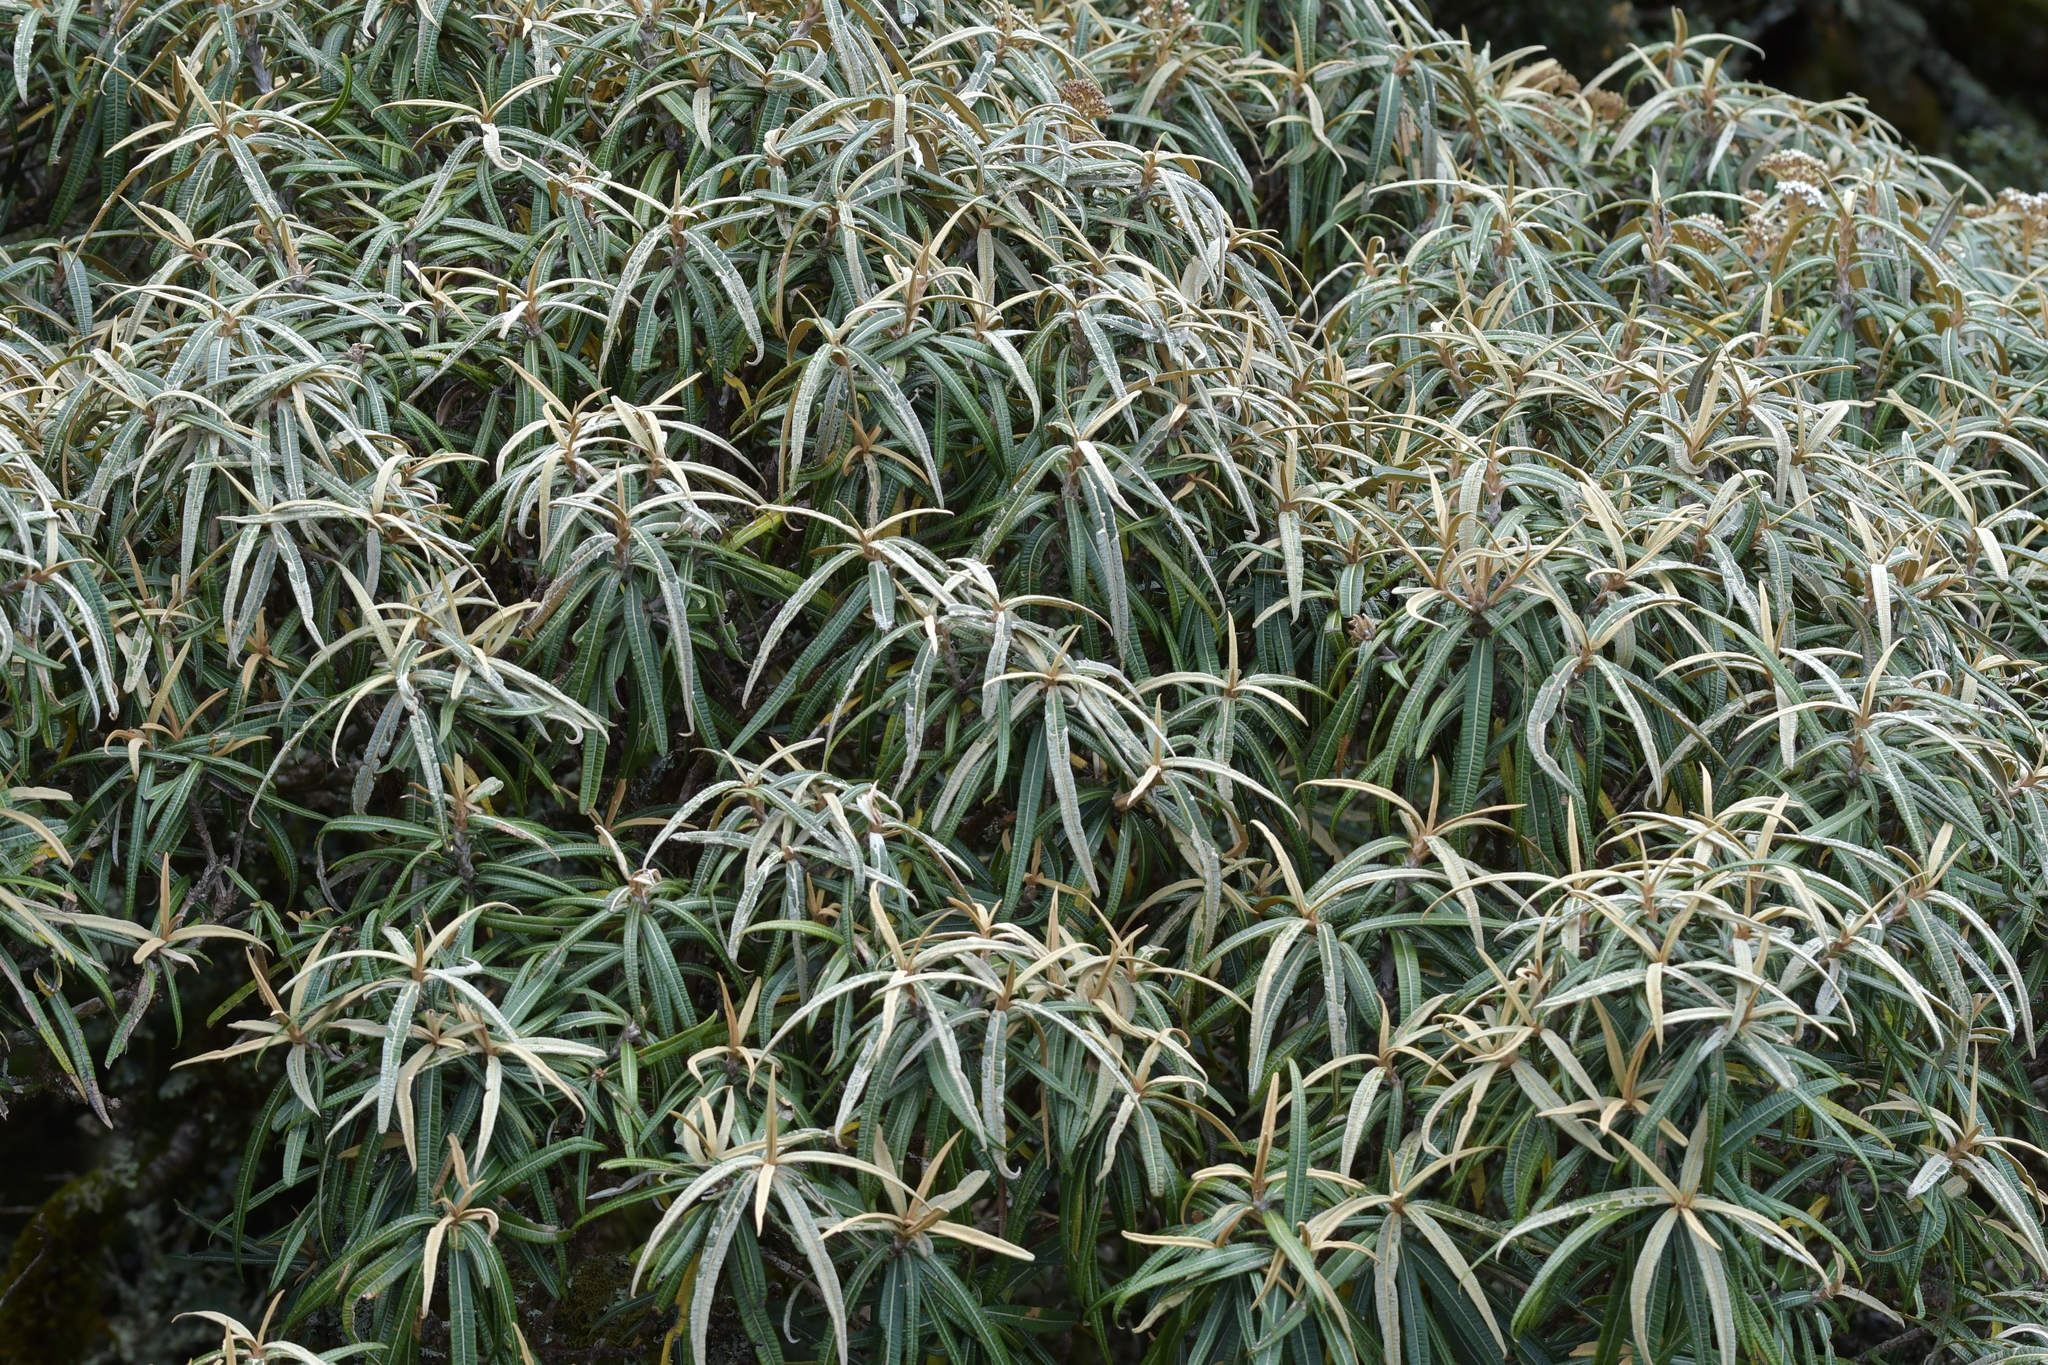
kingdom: Plantae
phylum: Tracheophyta
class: Magnoliopsida
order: Asterales
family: Asteraceae
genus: Olearia
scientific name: Olearia lacunosa
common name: Lancewood tree daisy
